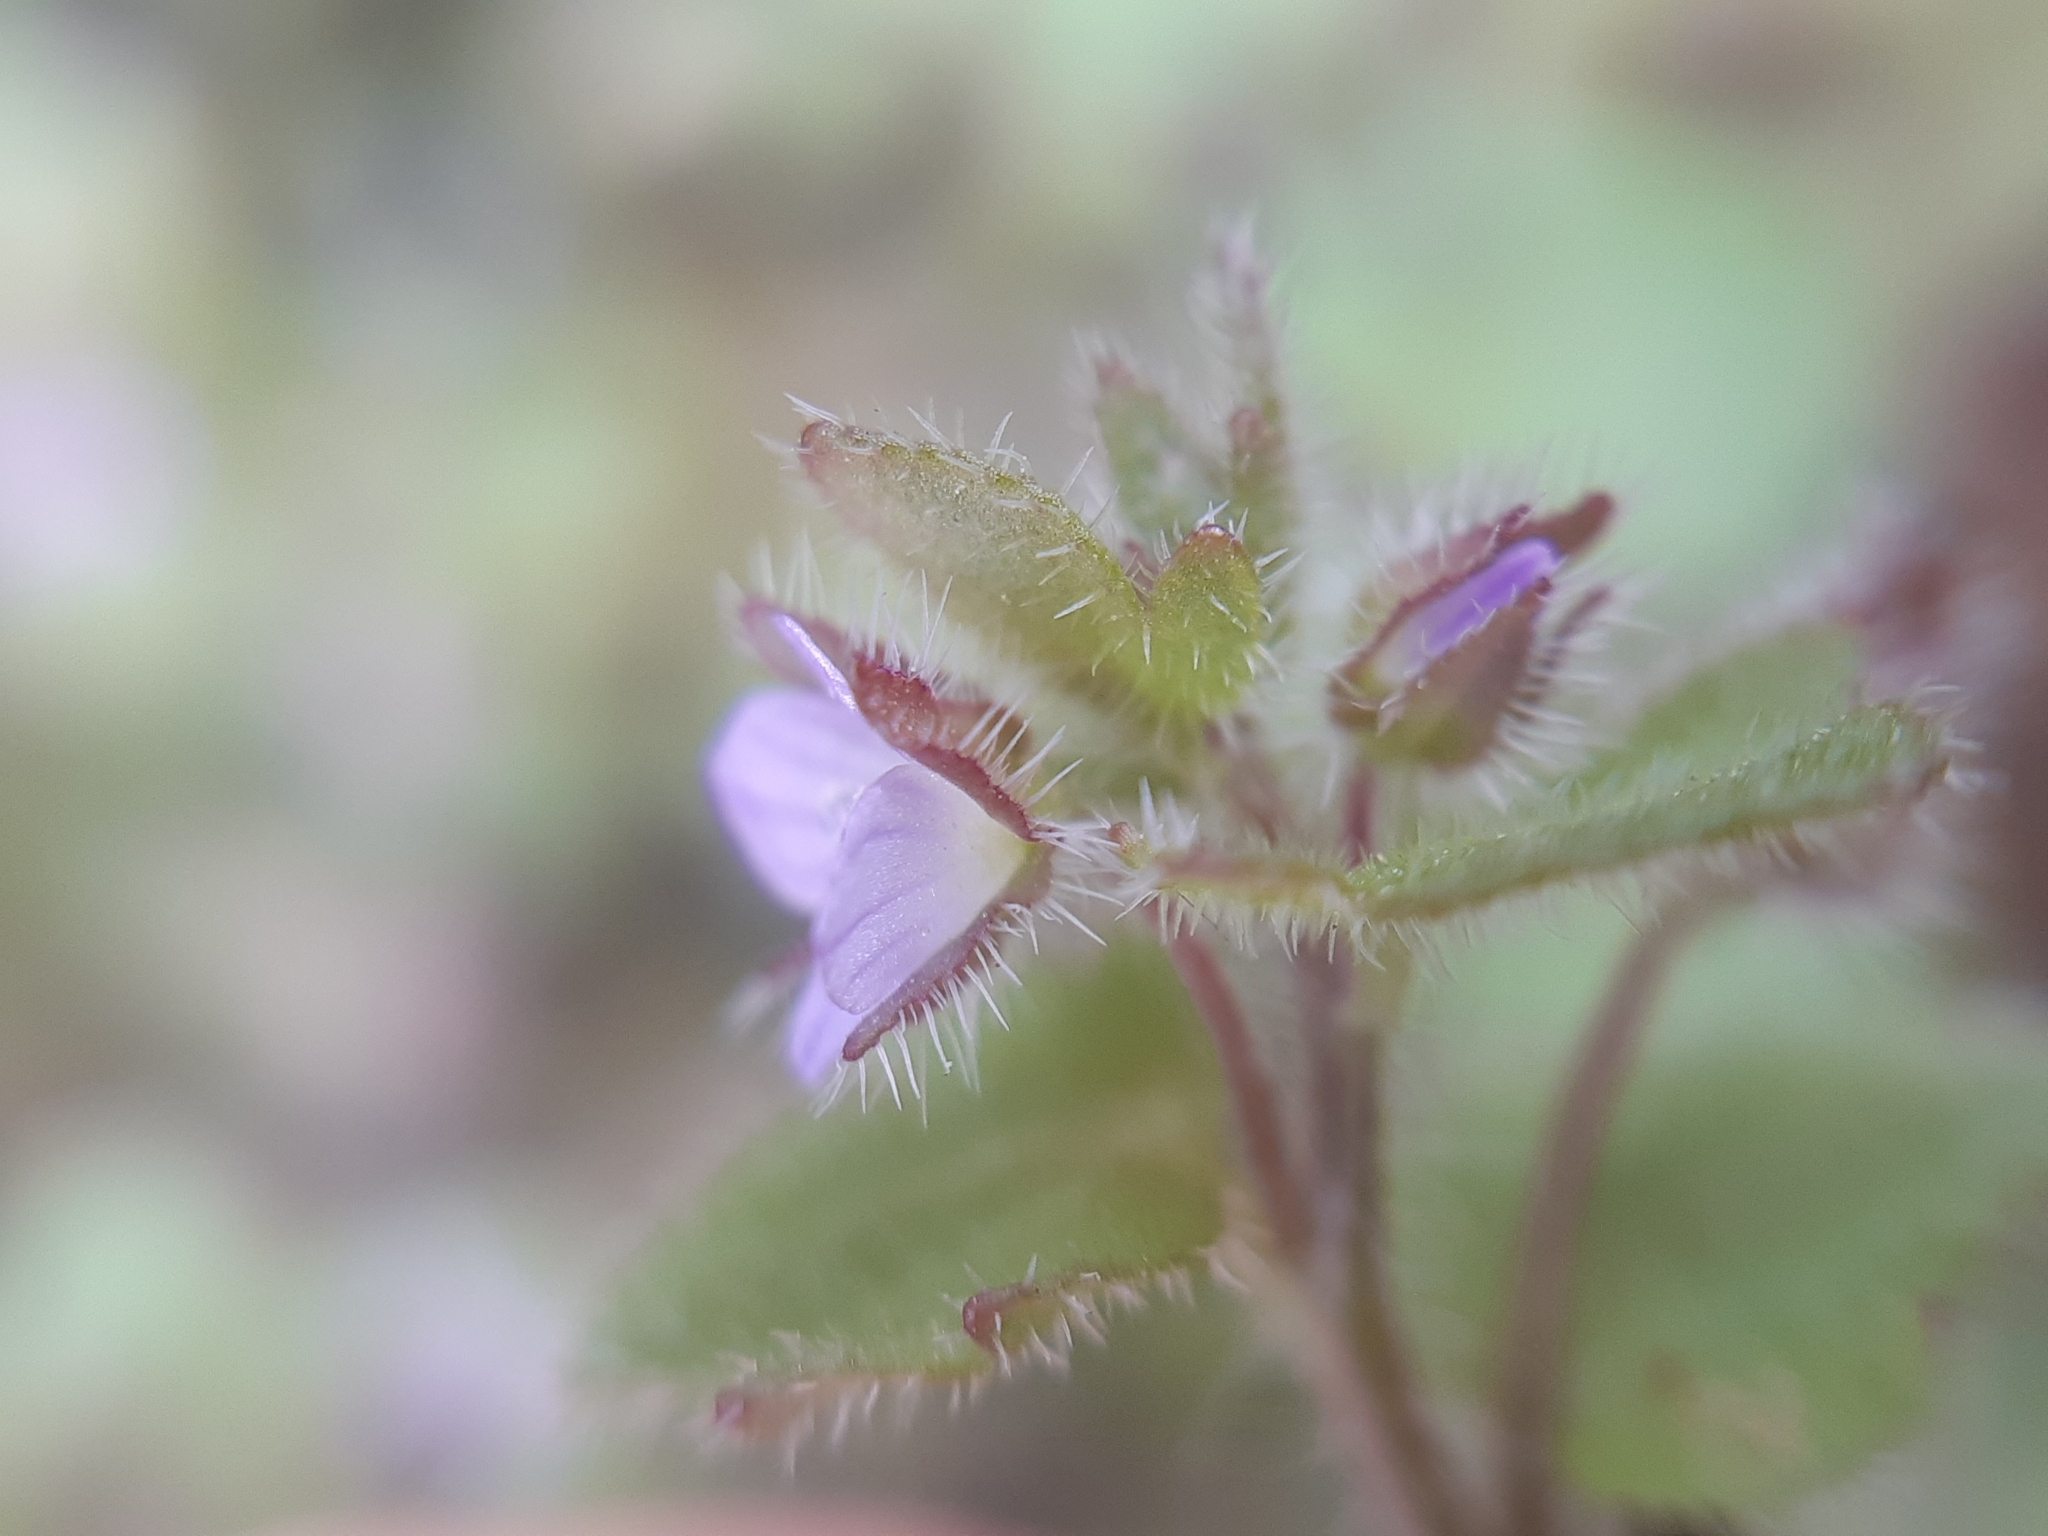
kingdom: Plantae
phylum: Tracheophyta
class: Magnoliopsida
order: Lamiales
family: Plantaginaceae
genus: Veronica
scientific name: Veronica sublobata
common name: False ivy-leaved speedwell
